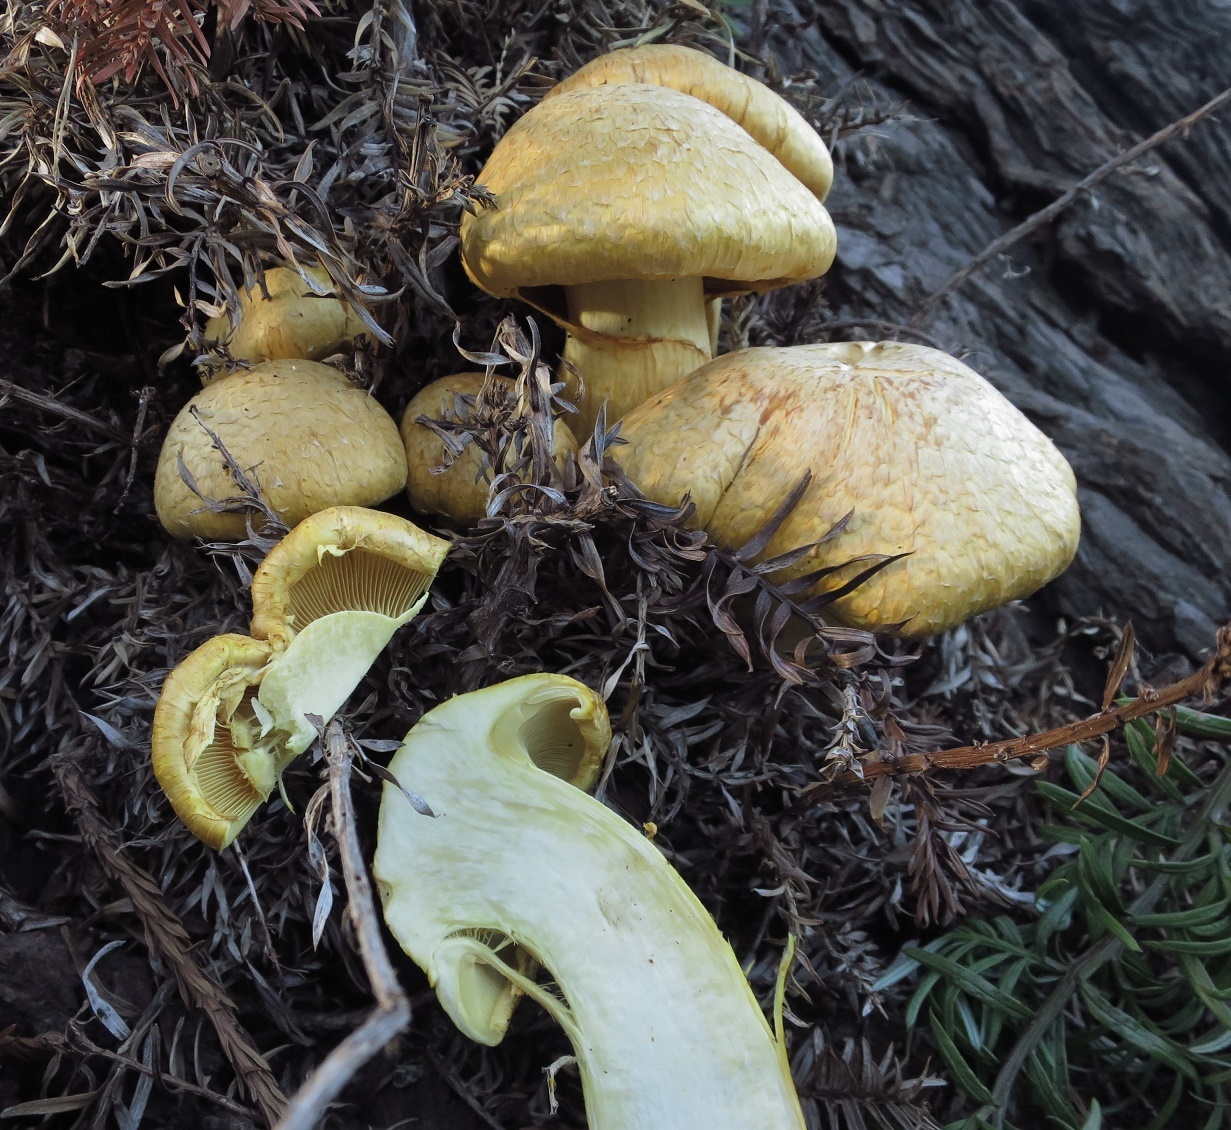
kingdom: Fungi
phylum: Basidiomycota
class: Agaricomycetes
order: Agaricales
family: Hymenogastraceae
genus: Gymnopilus
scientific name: Gymnopilus junonius
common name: Spectacular rustgill
